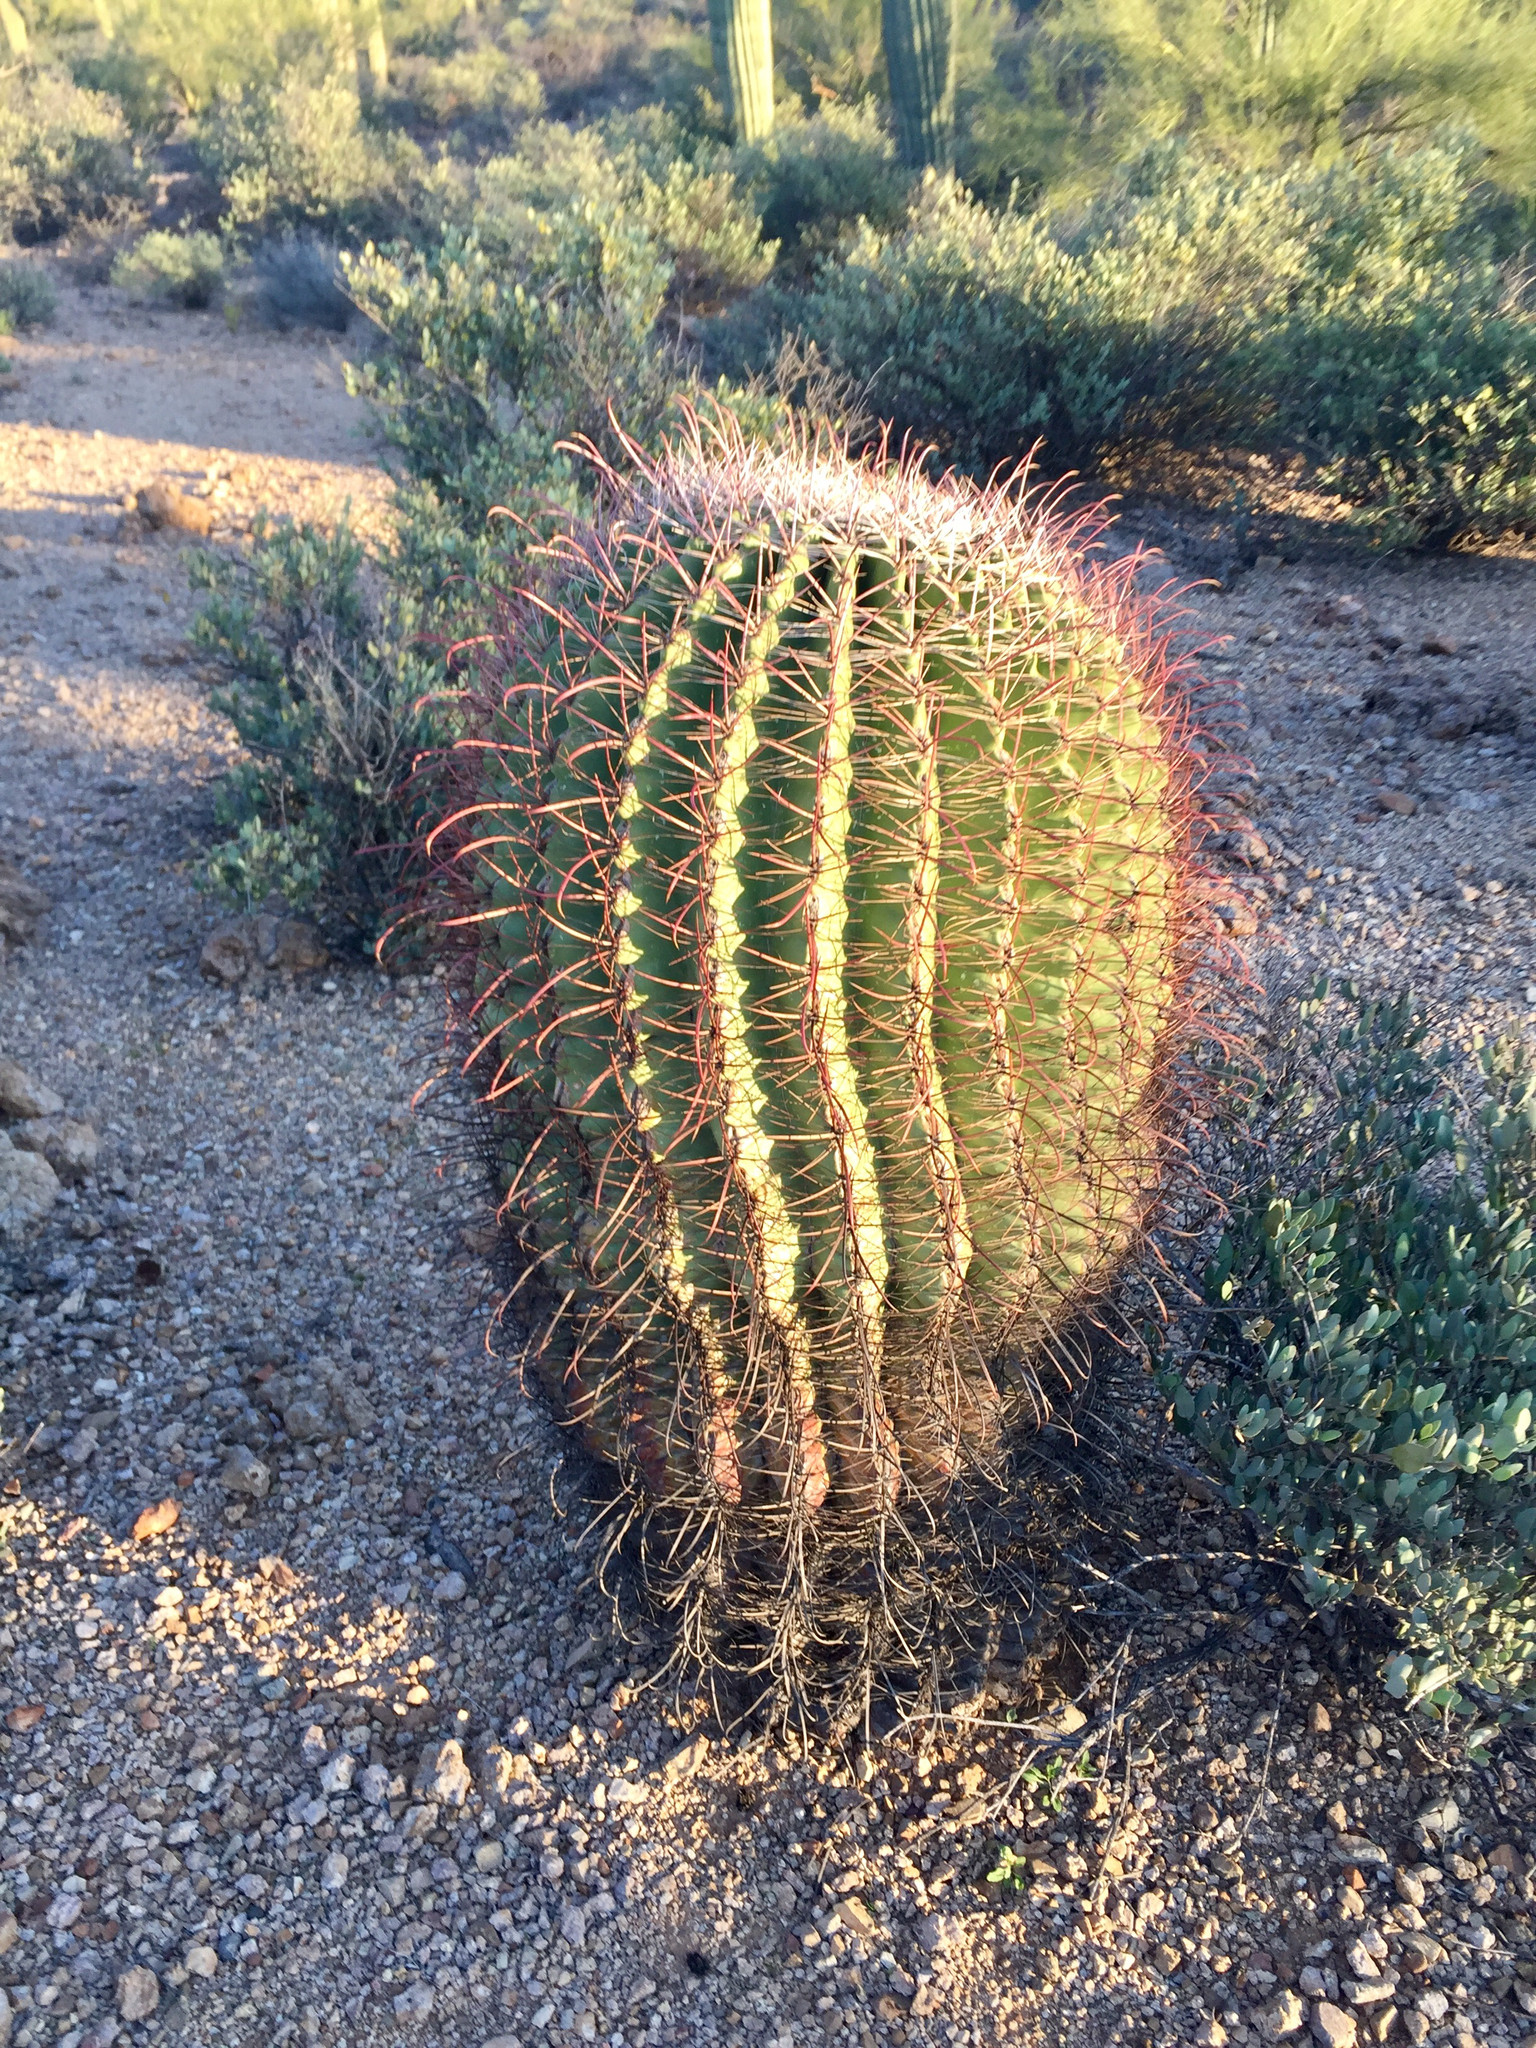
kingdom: Plantae
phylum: Tracheophyta
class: Magnoliopsida
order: Caryophyllales
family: Cactaceae
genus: Ferocactus
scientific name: Ferocactus wislizeni
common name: Candy barrel cactus
